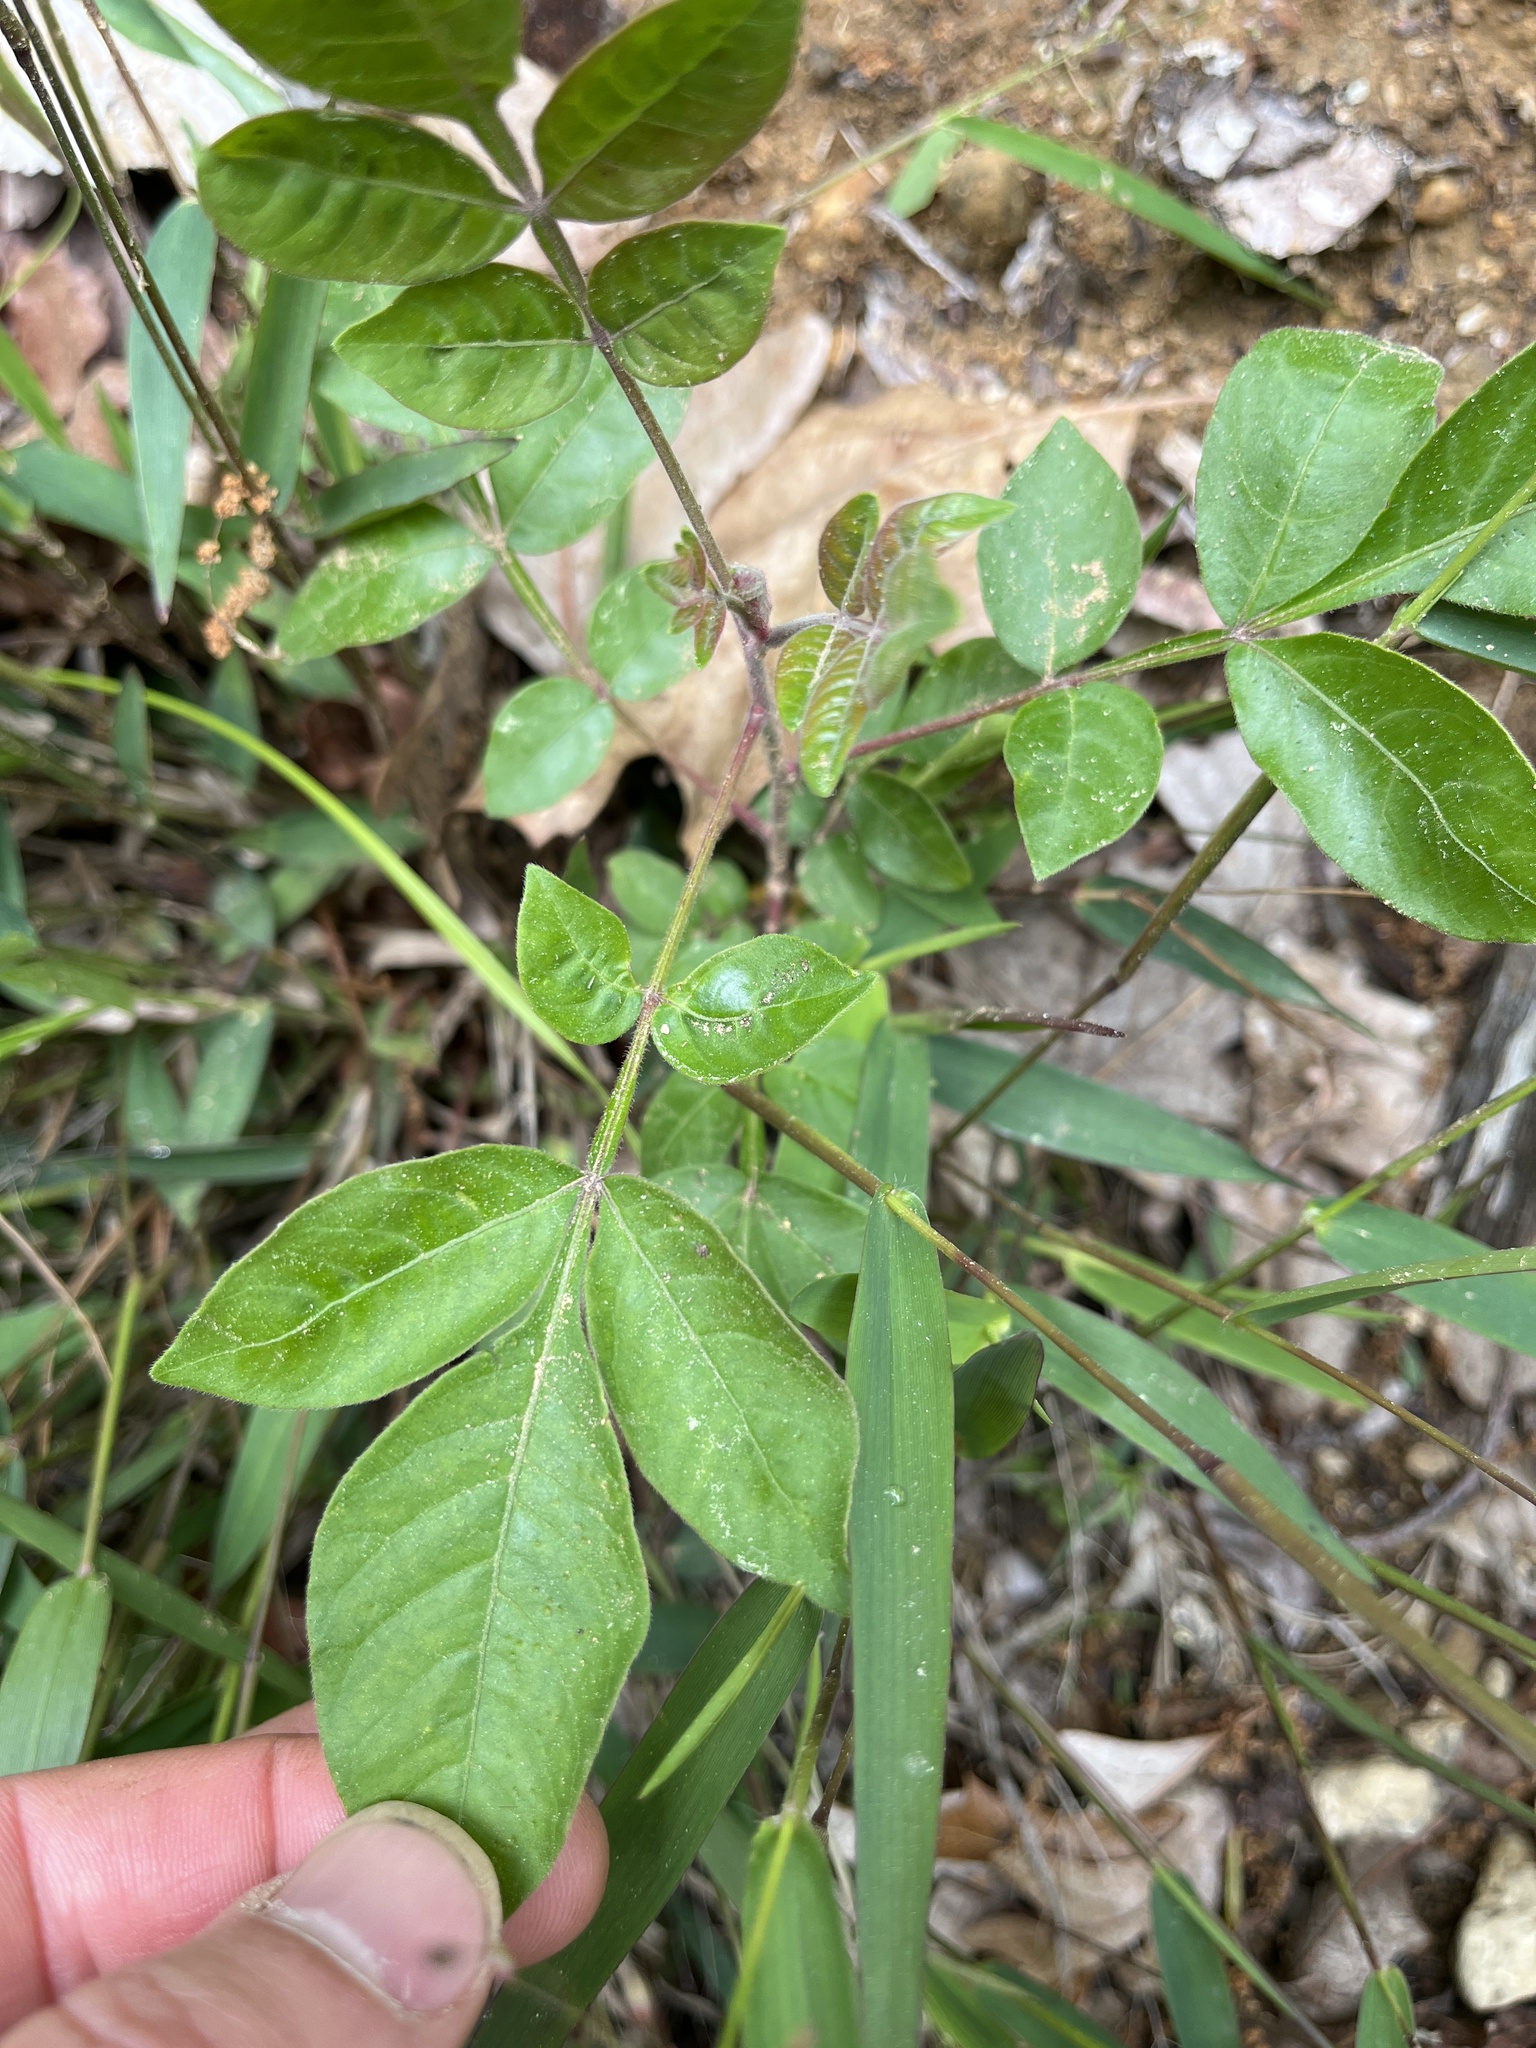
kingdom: Plantae
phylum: Tracheophyta
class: Magnoliopsida
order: Sapindales
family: Anacardiaceae
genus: Rhus
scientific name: Rhus copallina
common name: Shining sumac
